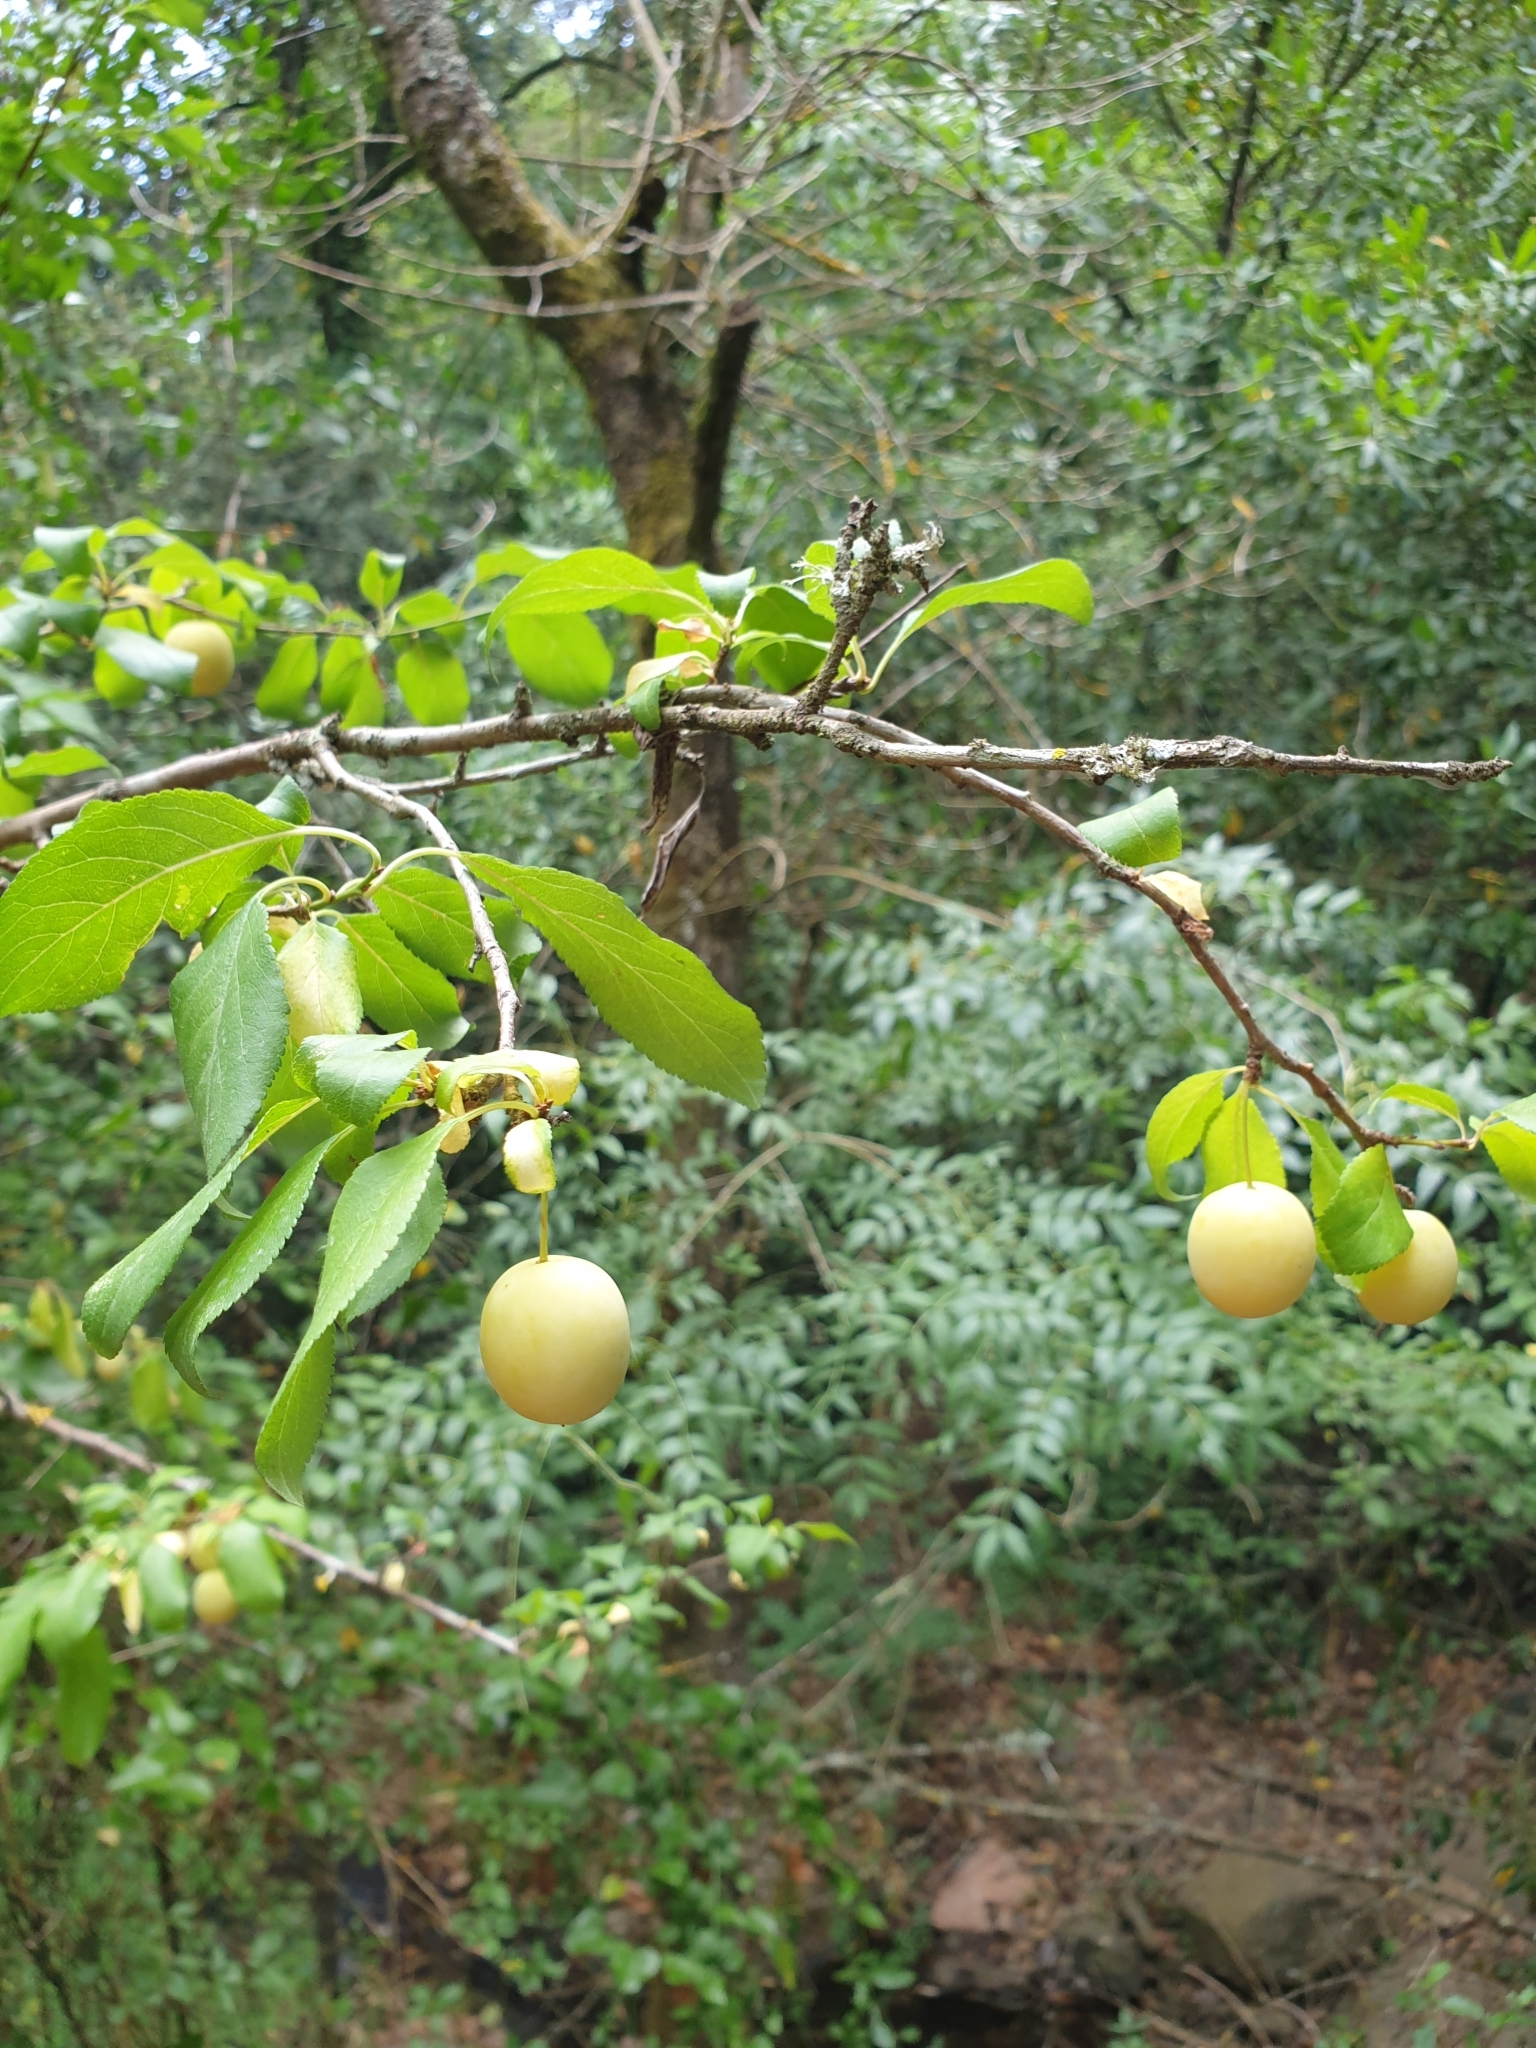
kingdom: Plantae
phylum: Tracheophyta
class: Magnoliopsida
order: Rosales
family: Rosaceae
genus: Prunus
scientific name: Prunus cerasifera
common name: Cherry plum
